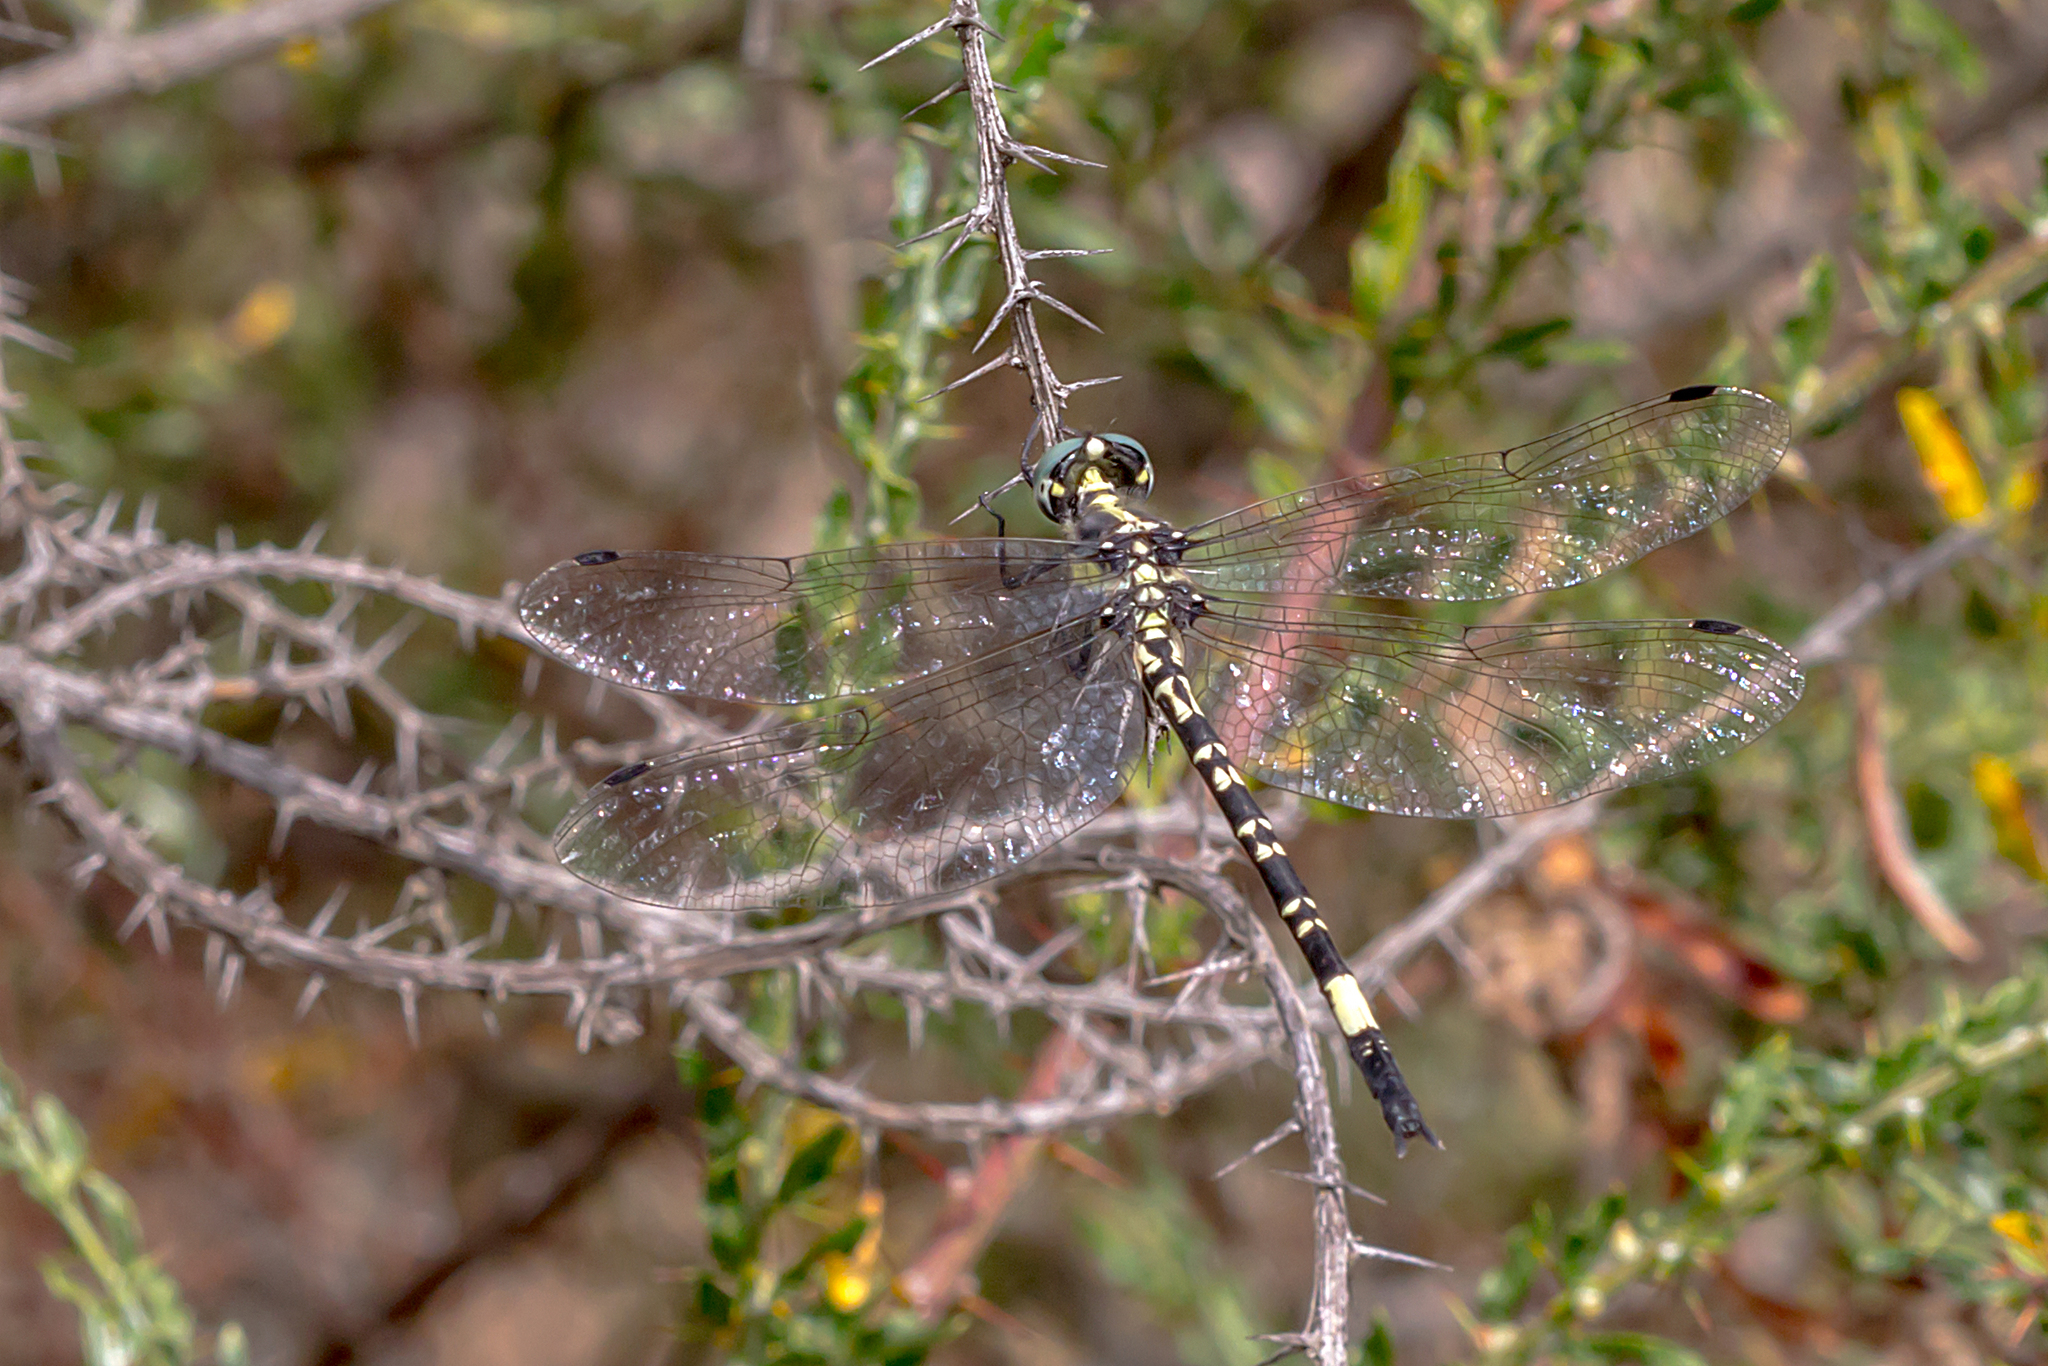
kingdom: Animalia
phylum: Arthropoda
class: Insecta
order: Odonata
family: Synthemistidae
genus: Parasynthemis
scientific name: Parasynthemis regina
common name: Royal tigertail
